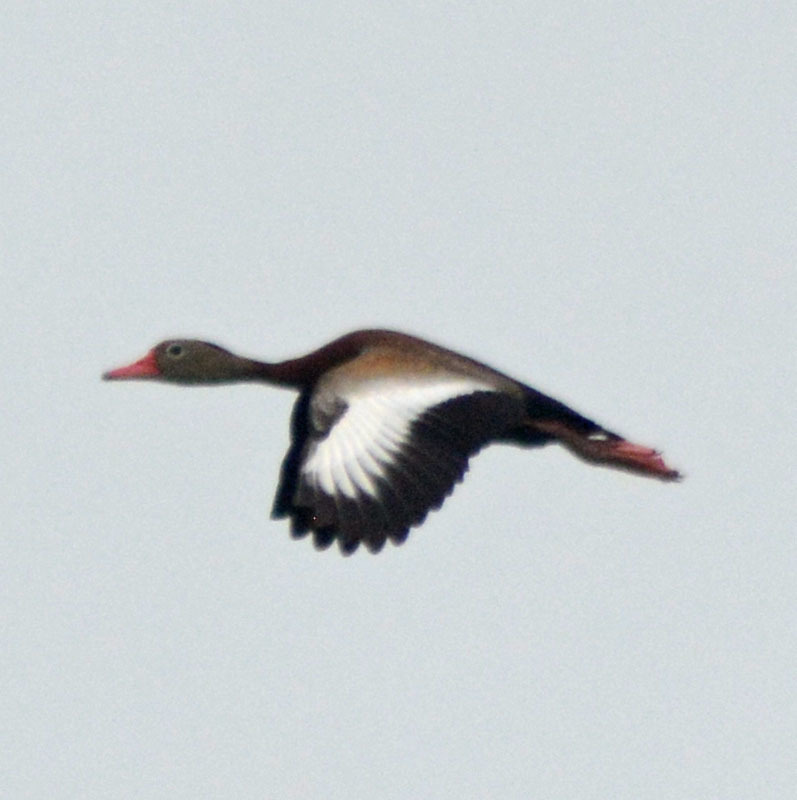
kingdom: Animalia
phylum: Chordata
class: Aves
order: Anseriformes
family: Anatidae
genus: Dendrocygna
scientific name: Dendrocygna autumnalis
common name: Black-bellied whistling duck
